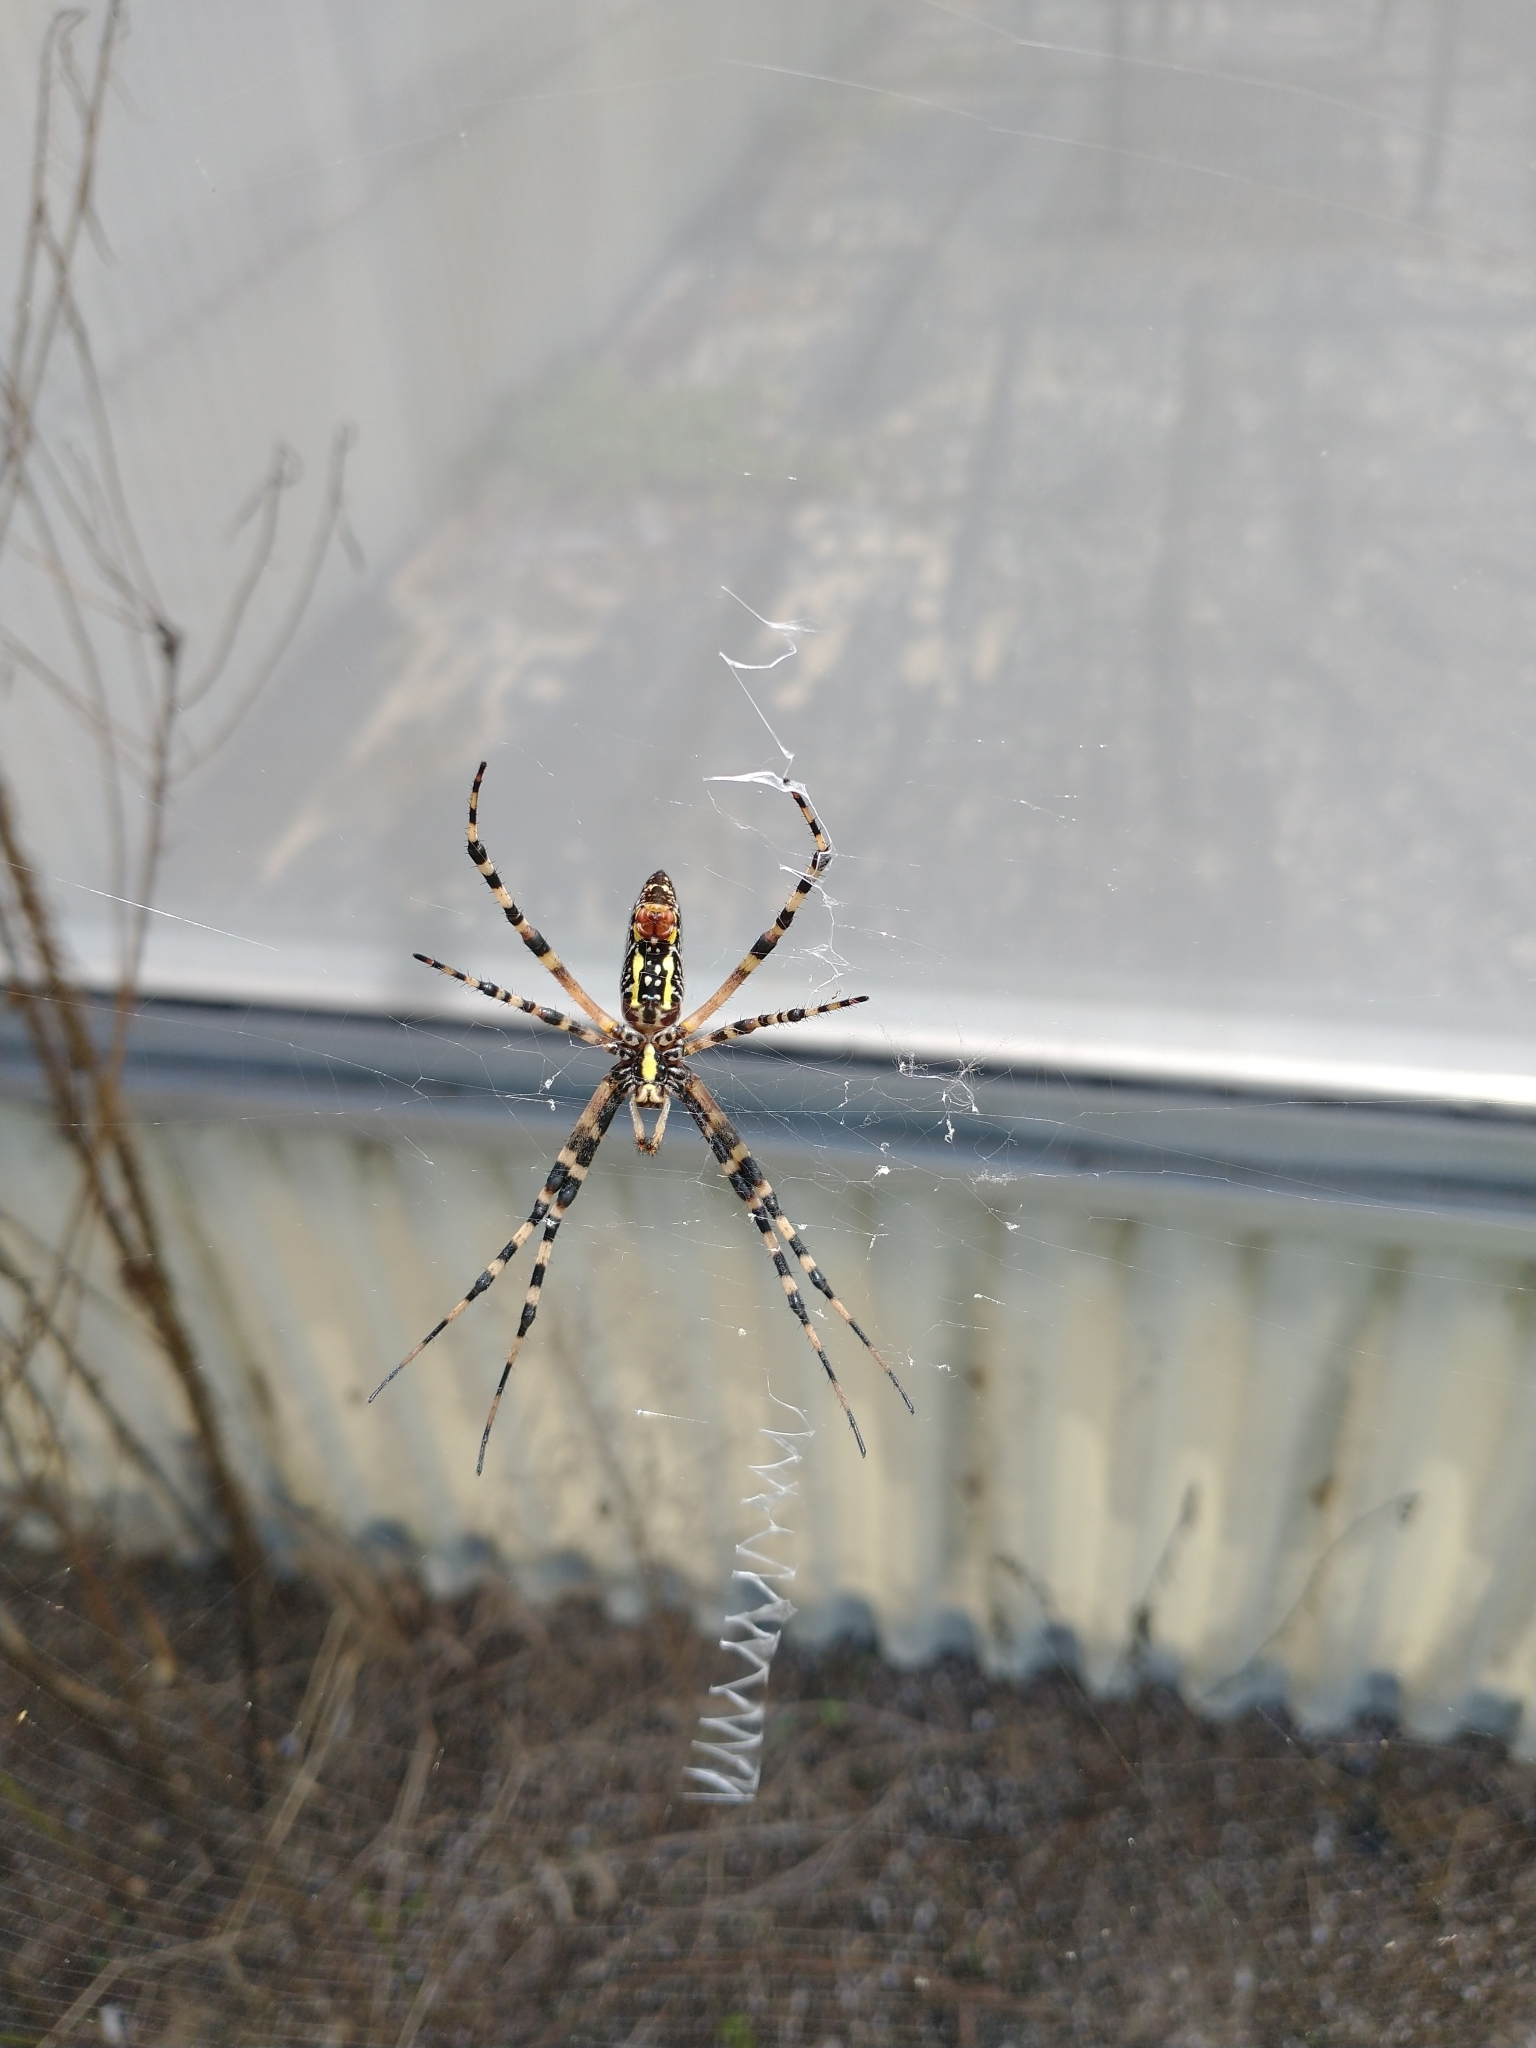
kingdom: Animalia
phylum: Arthropoda
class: Arachnida
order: Araneae
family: Araneidae
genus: Argiope
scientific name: Argiope aurantia
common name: Orb weavers
